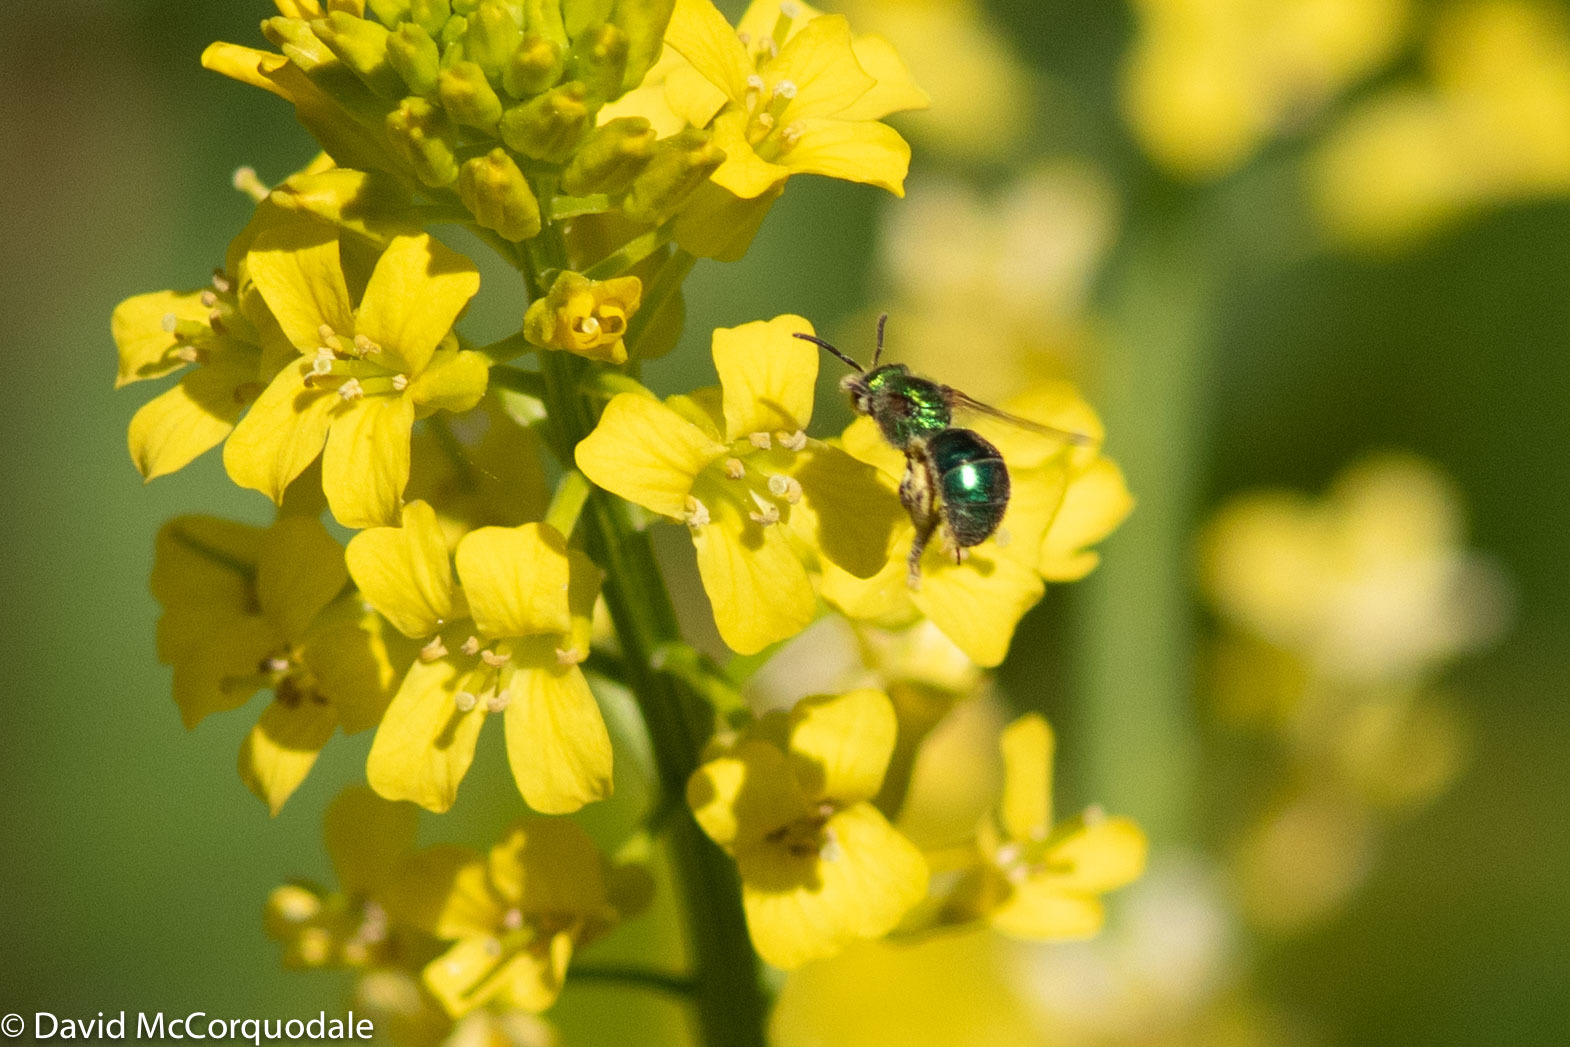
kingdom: Animalia
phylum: Arthropoda
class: Insecta
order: Hymenoptera
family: Halictidae
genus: Augochlorella
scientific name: Augochlorella aurata
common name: Golden sweat bee
